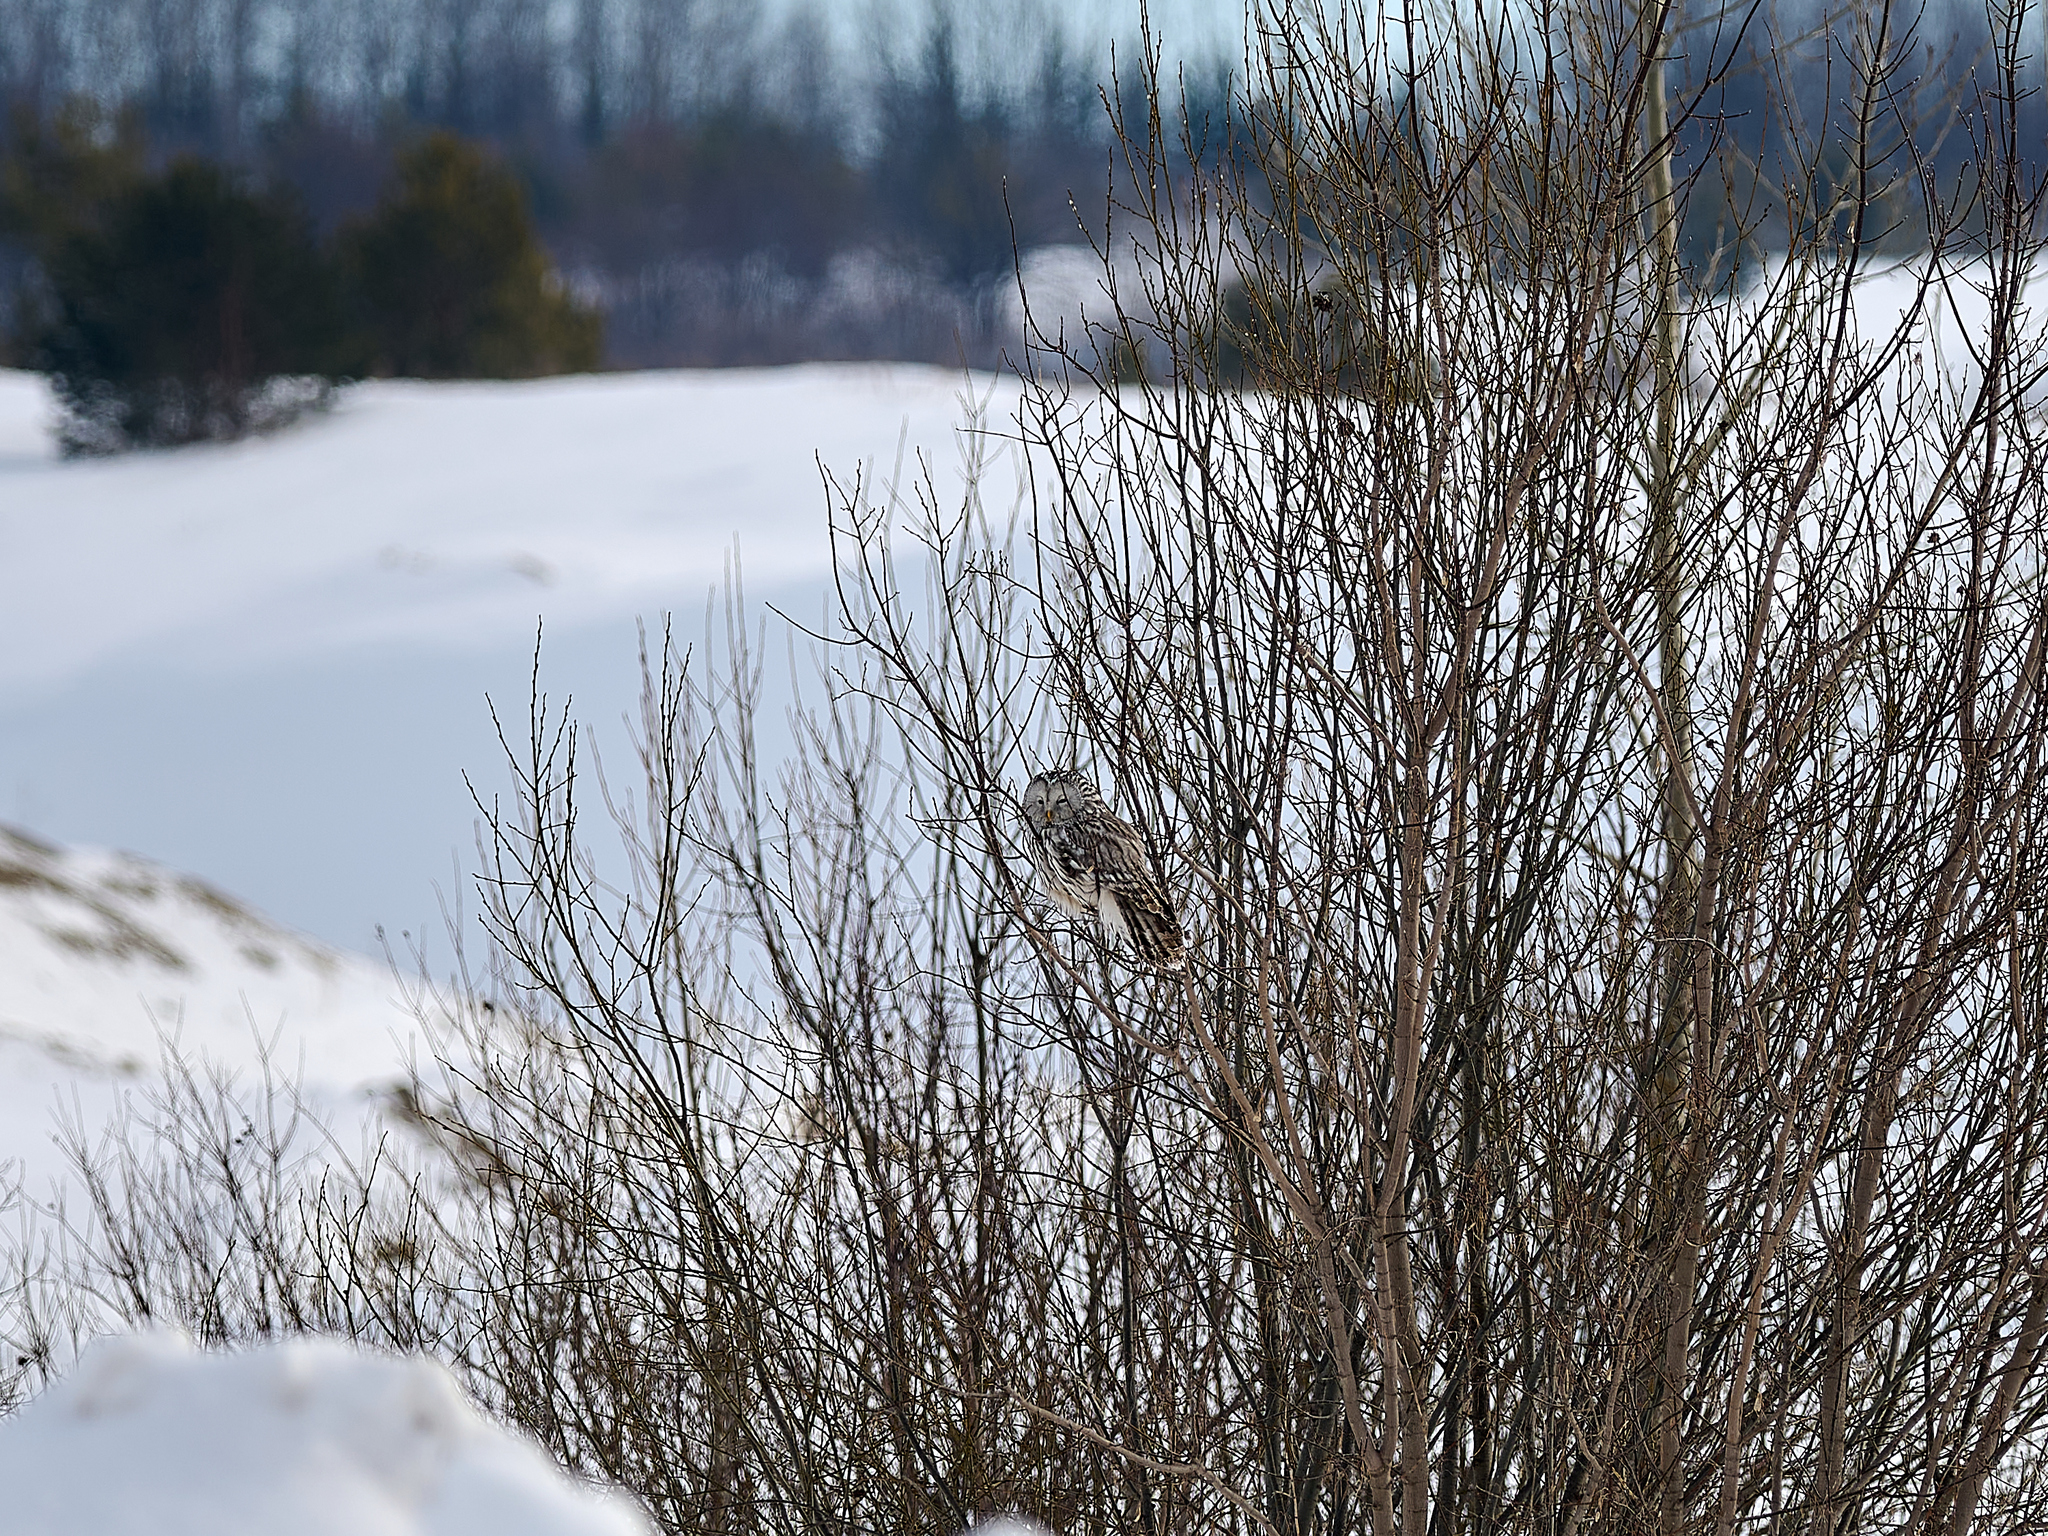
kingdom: Animalia
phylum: Chordata
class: Aves
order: Strigiformes
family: Strigidae
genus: Strix
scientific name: Strix uralensis
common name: Ural owl
